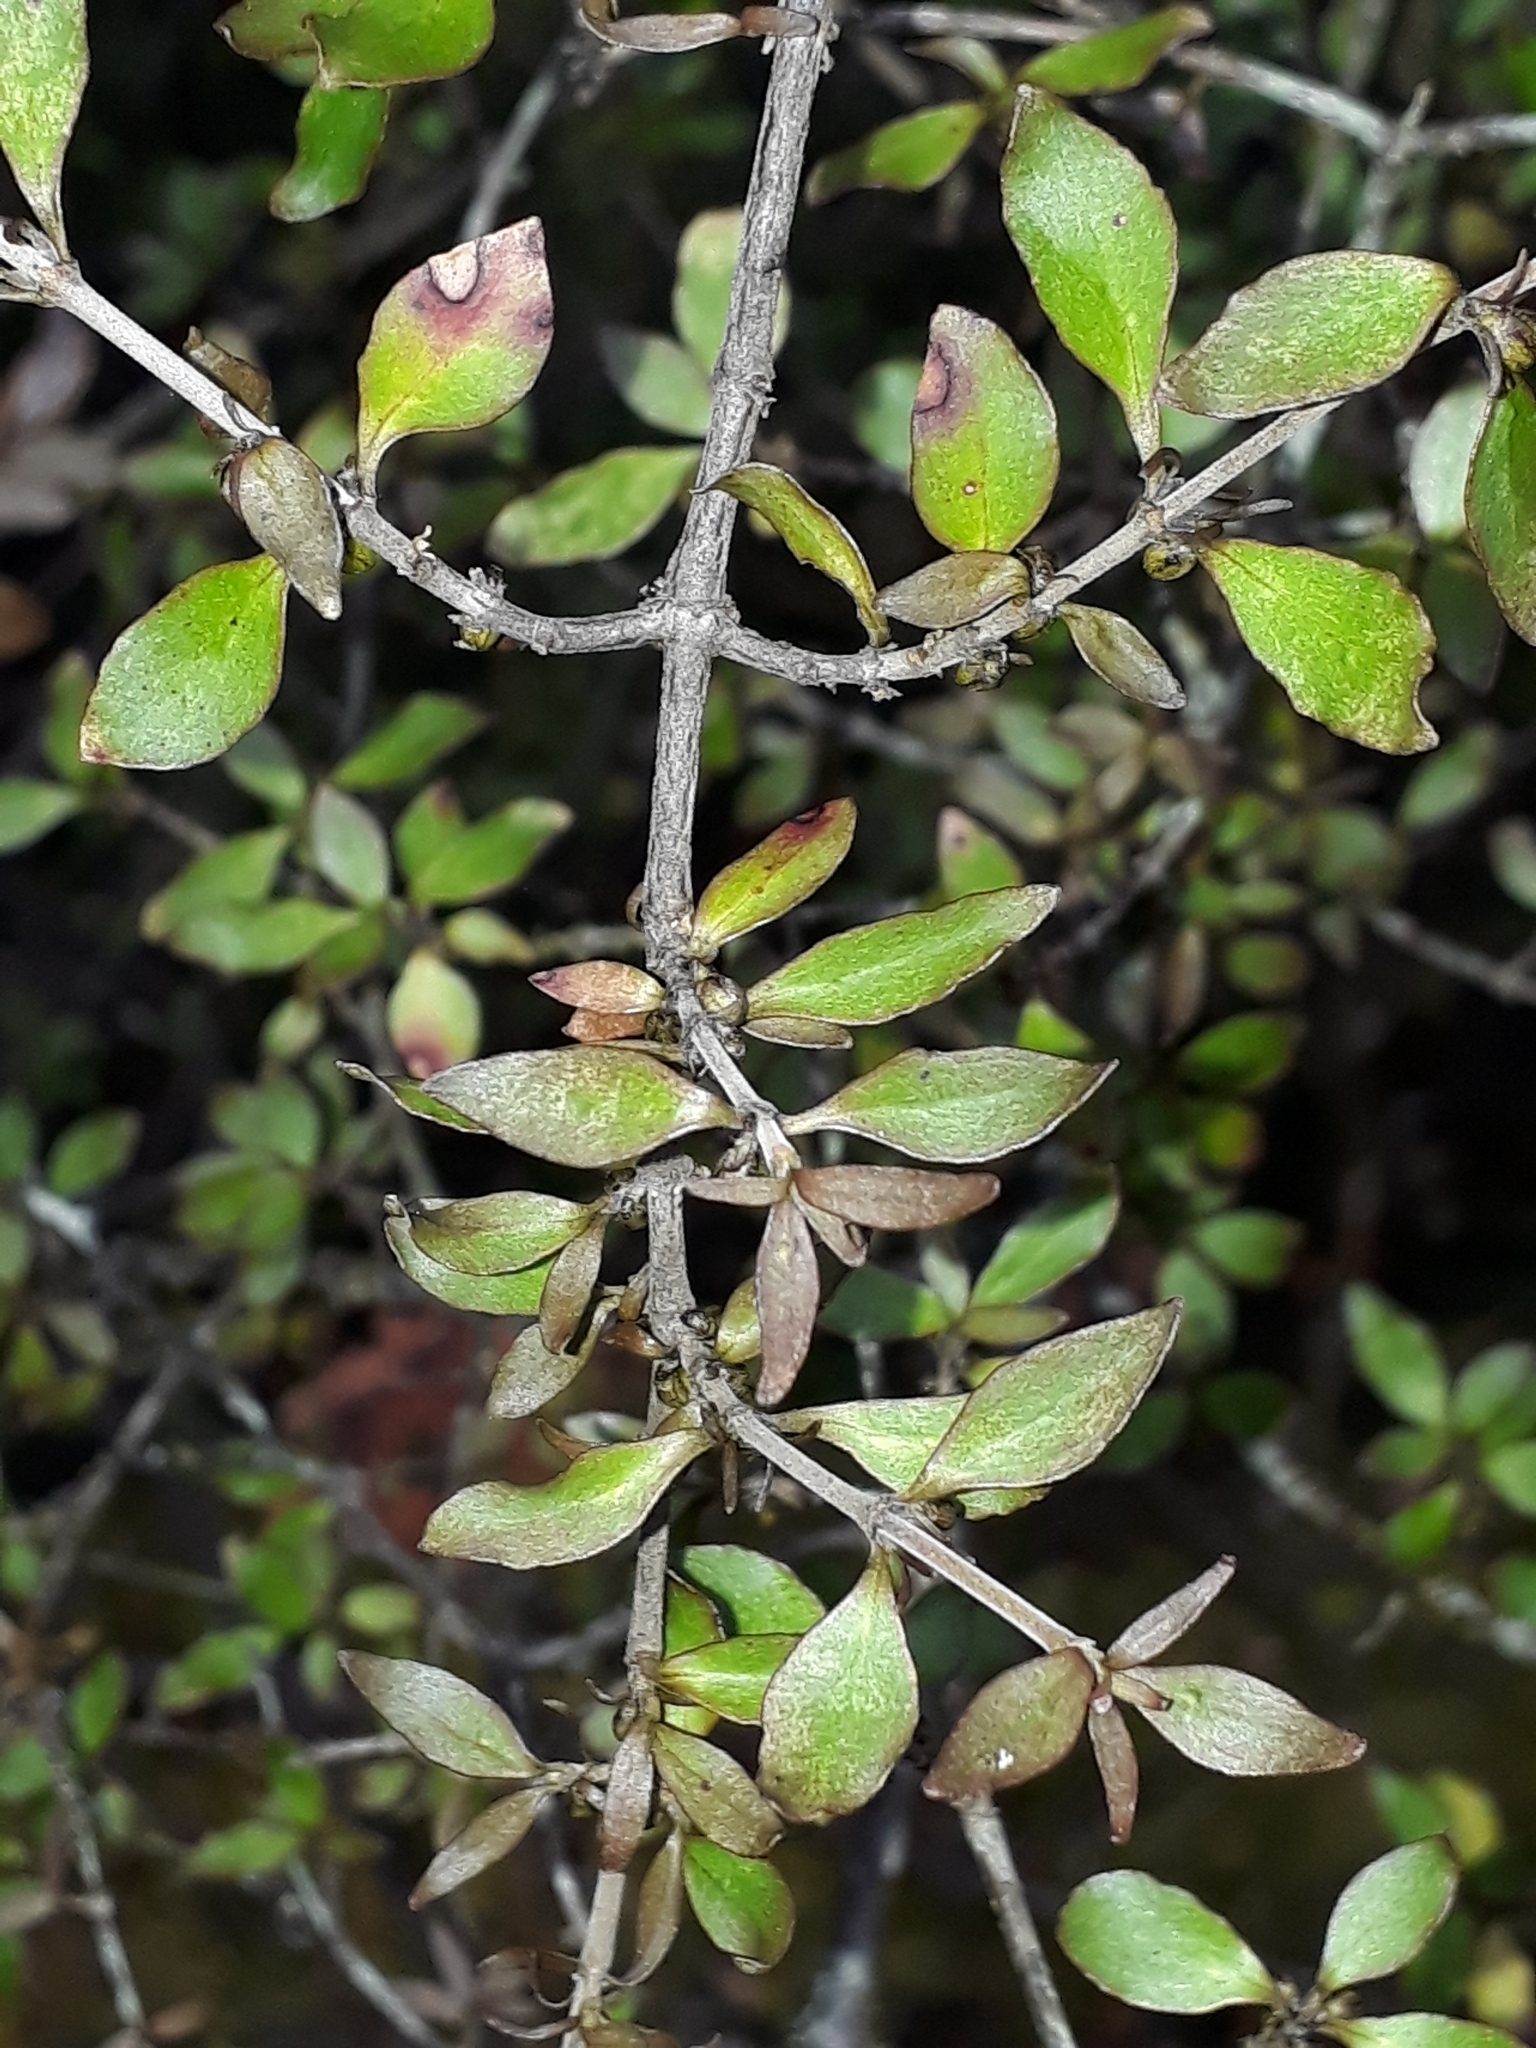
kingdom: Plantae
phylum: Tracheophyta
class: Magnoliopsida
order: Gentianales
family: Rubiaceae
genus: Coprosma
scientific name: Coprosma rhamnoides
